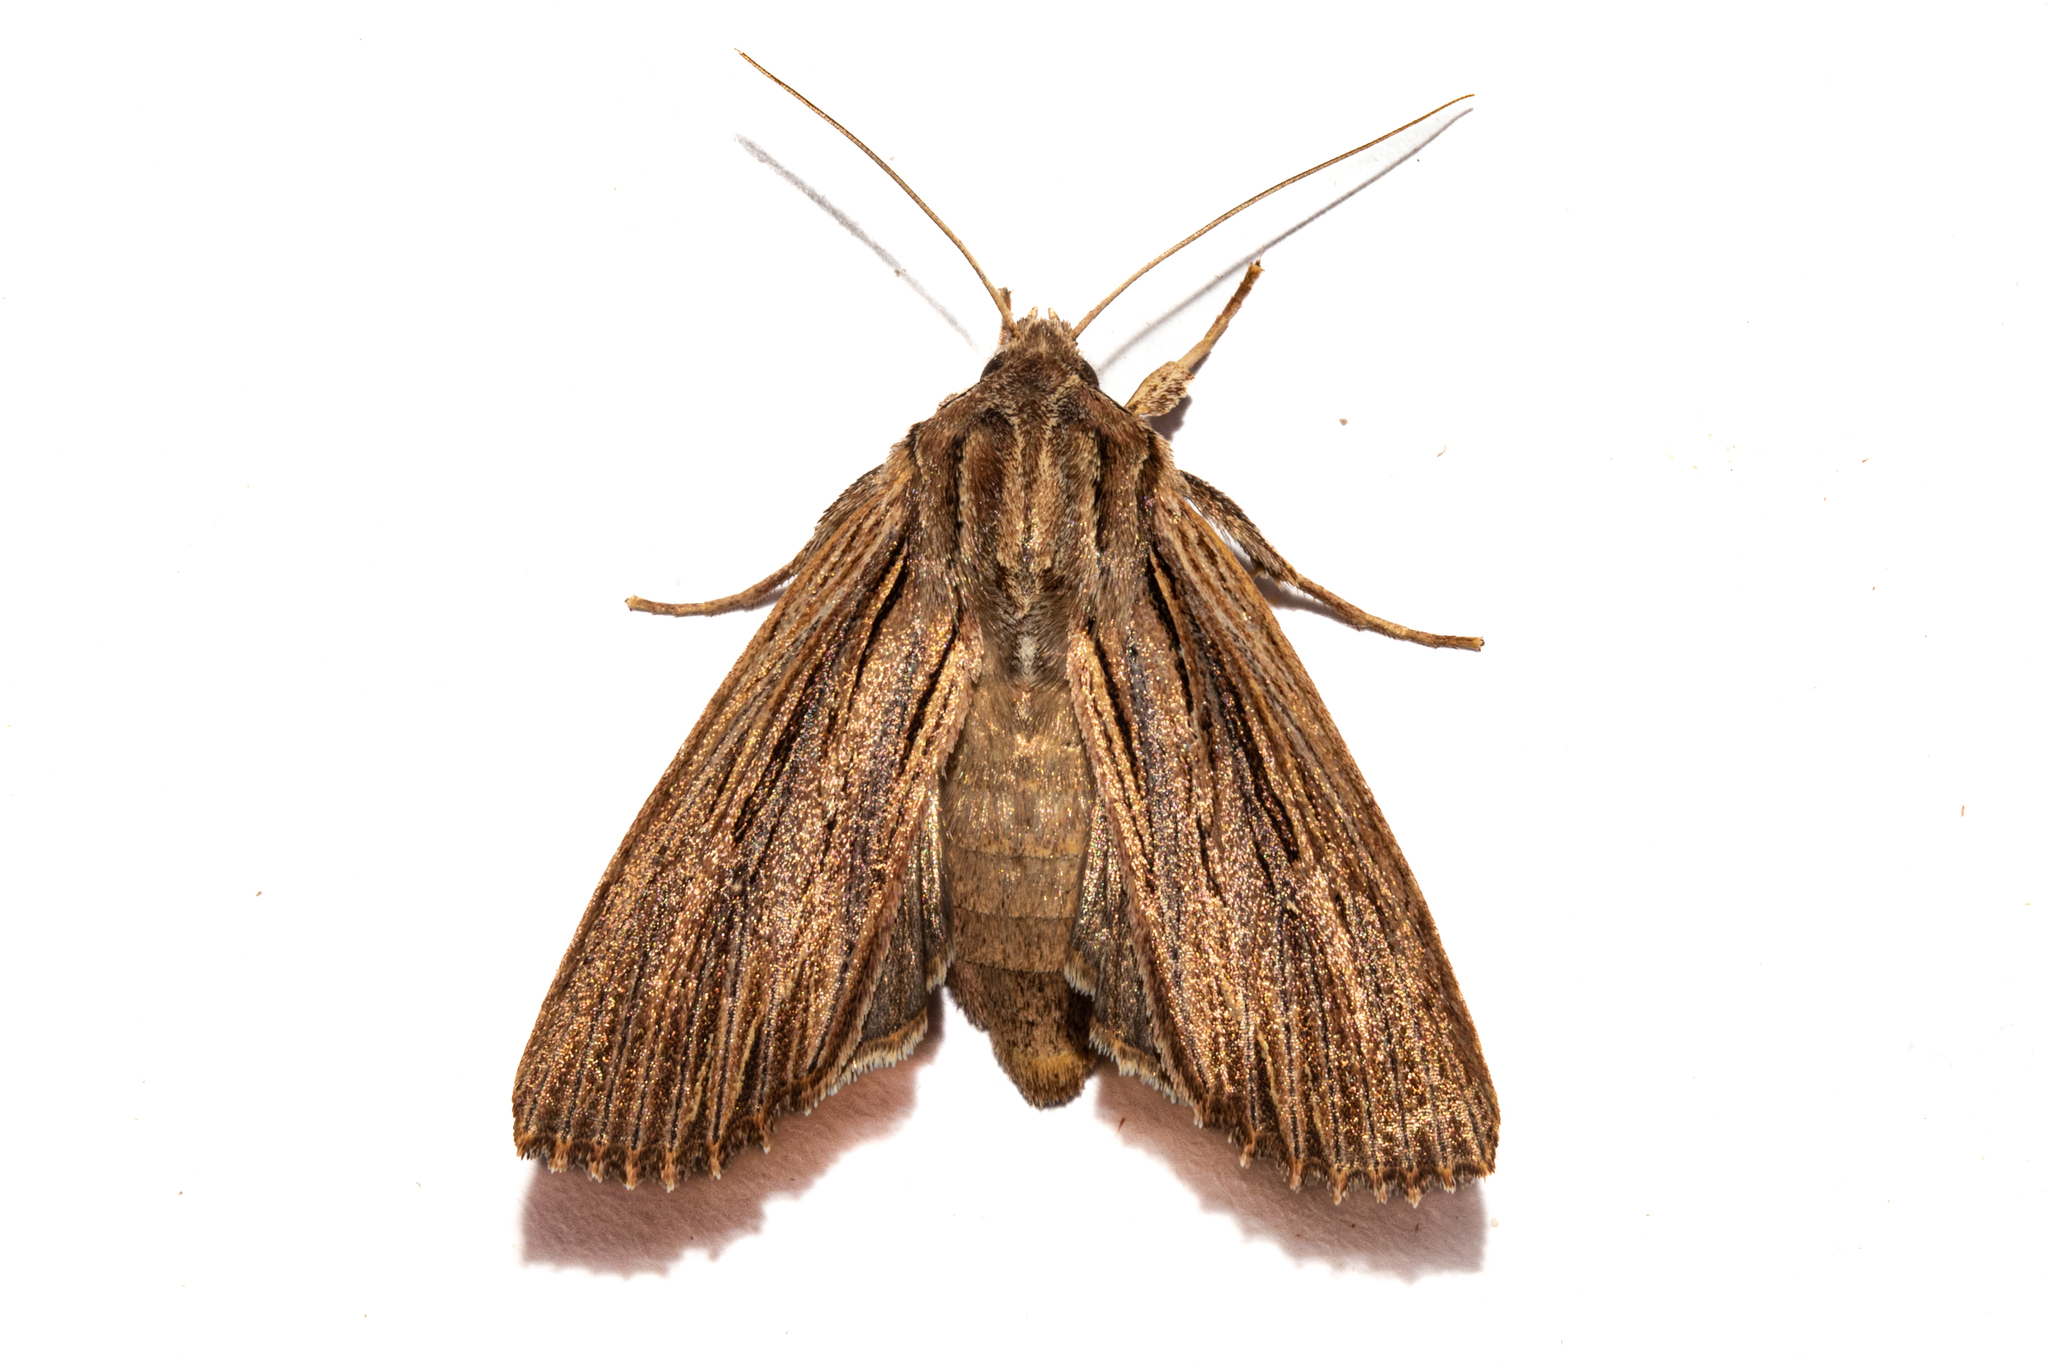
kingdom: Animalia
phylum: Arthropoda
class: Insecta
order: Lepidoptera
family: Noctuidae
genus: Ichneutica
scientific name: Ichneutica
